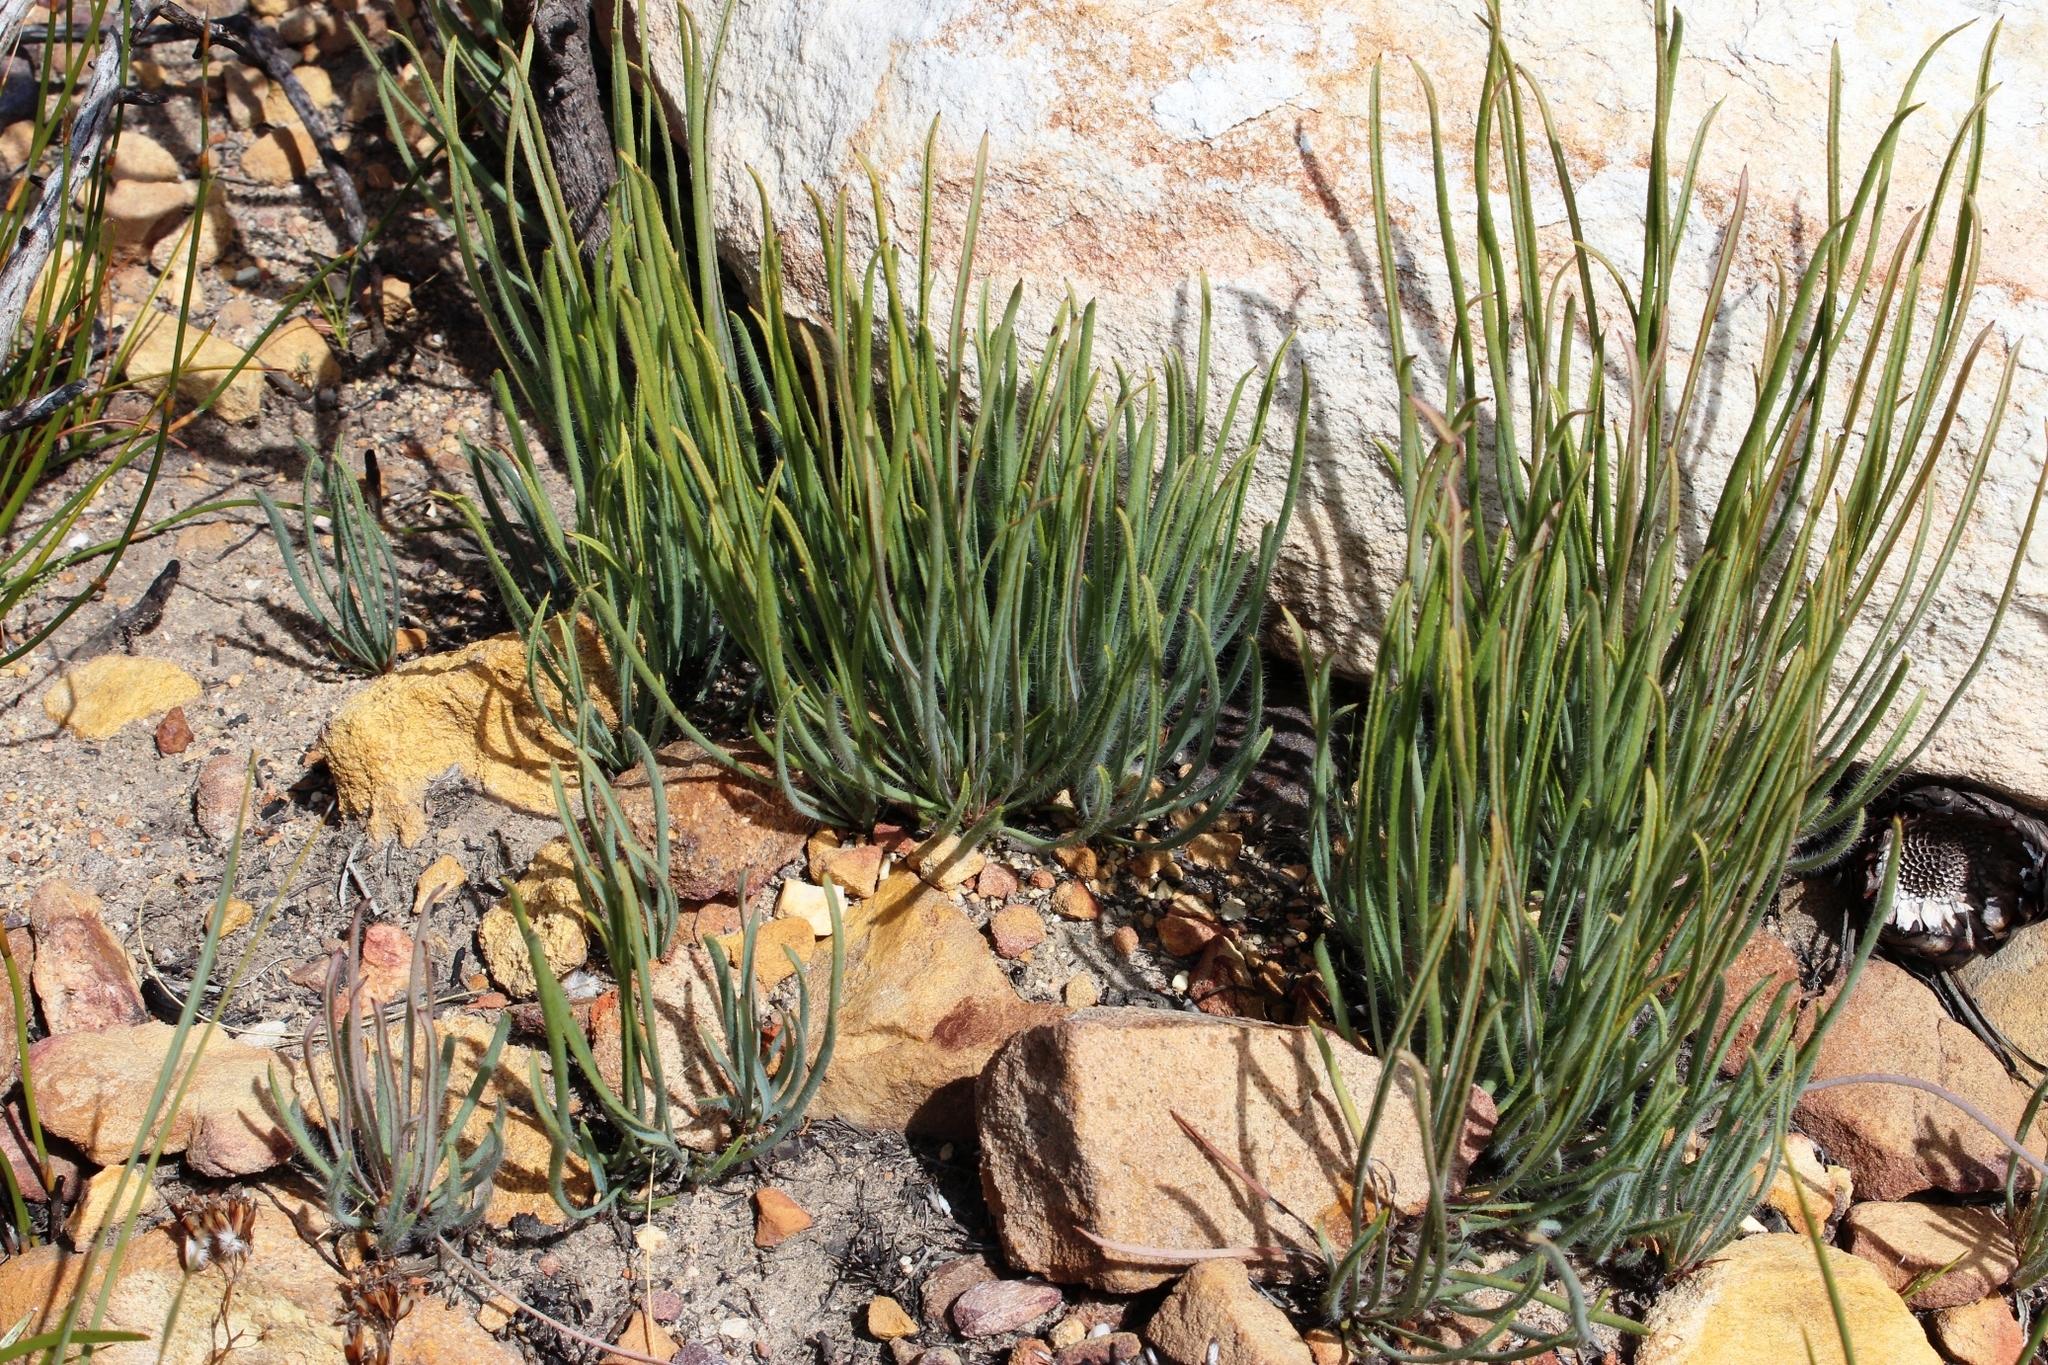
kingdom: Plantae
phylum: Tracheophyta
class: Magnoliopsida
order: Proteales
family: Proteaceae
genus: Protea
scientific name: Protea piscina
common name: Visgat sugarbush
